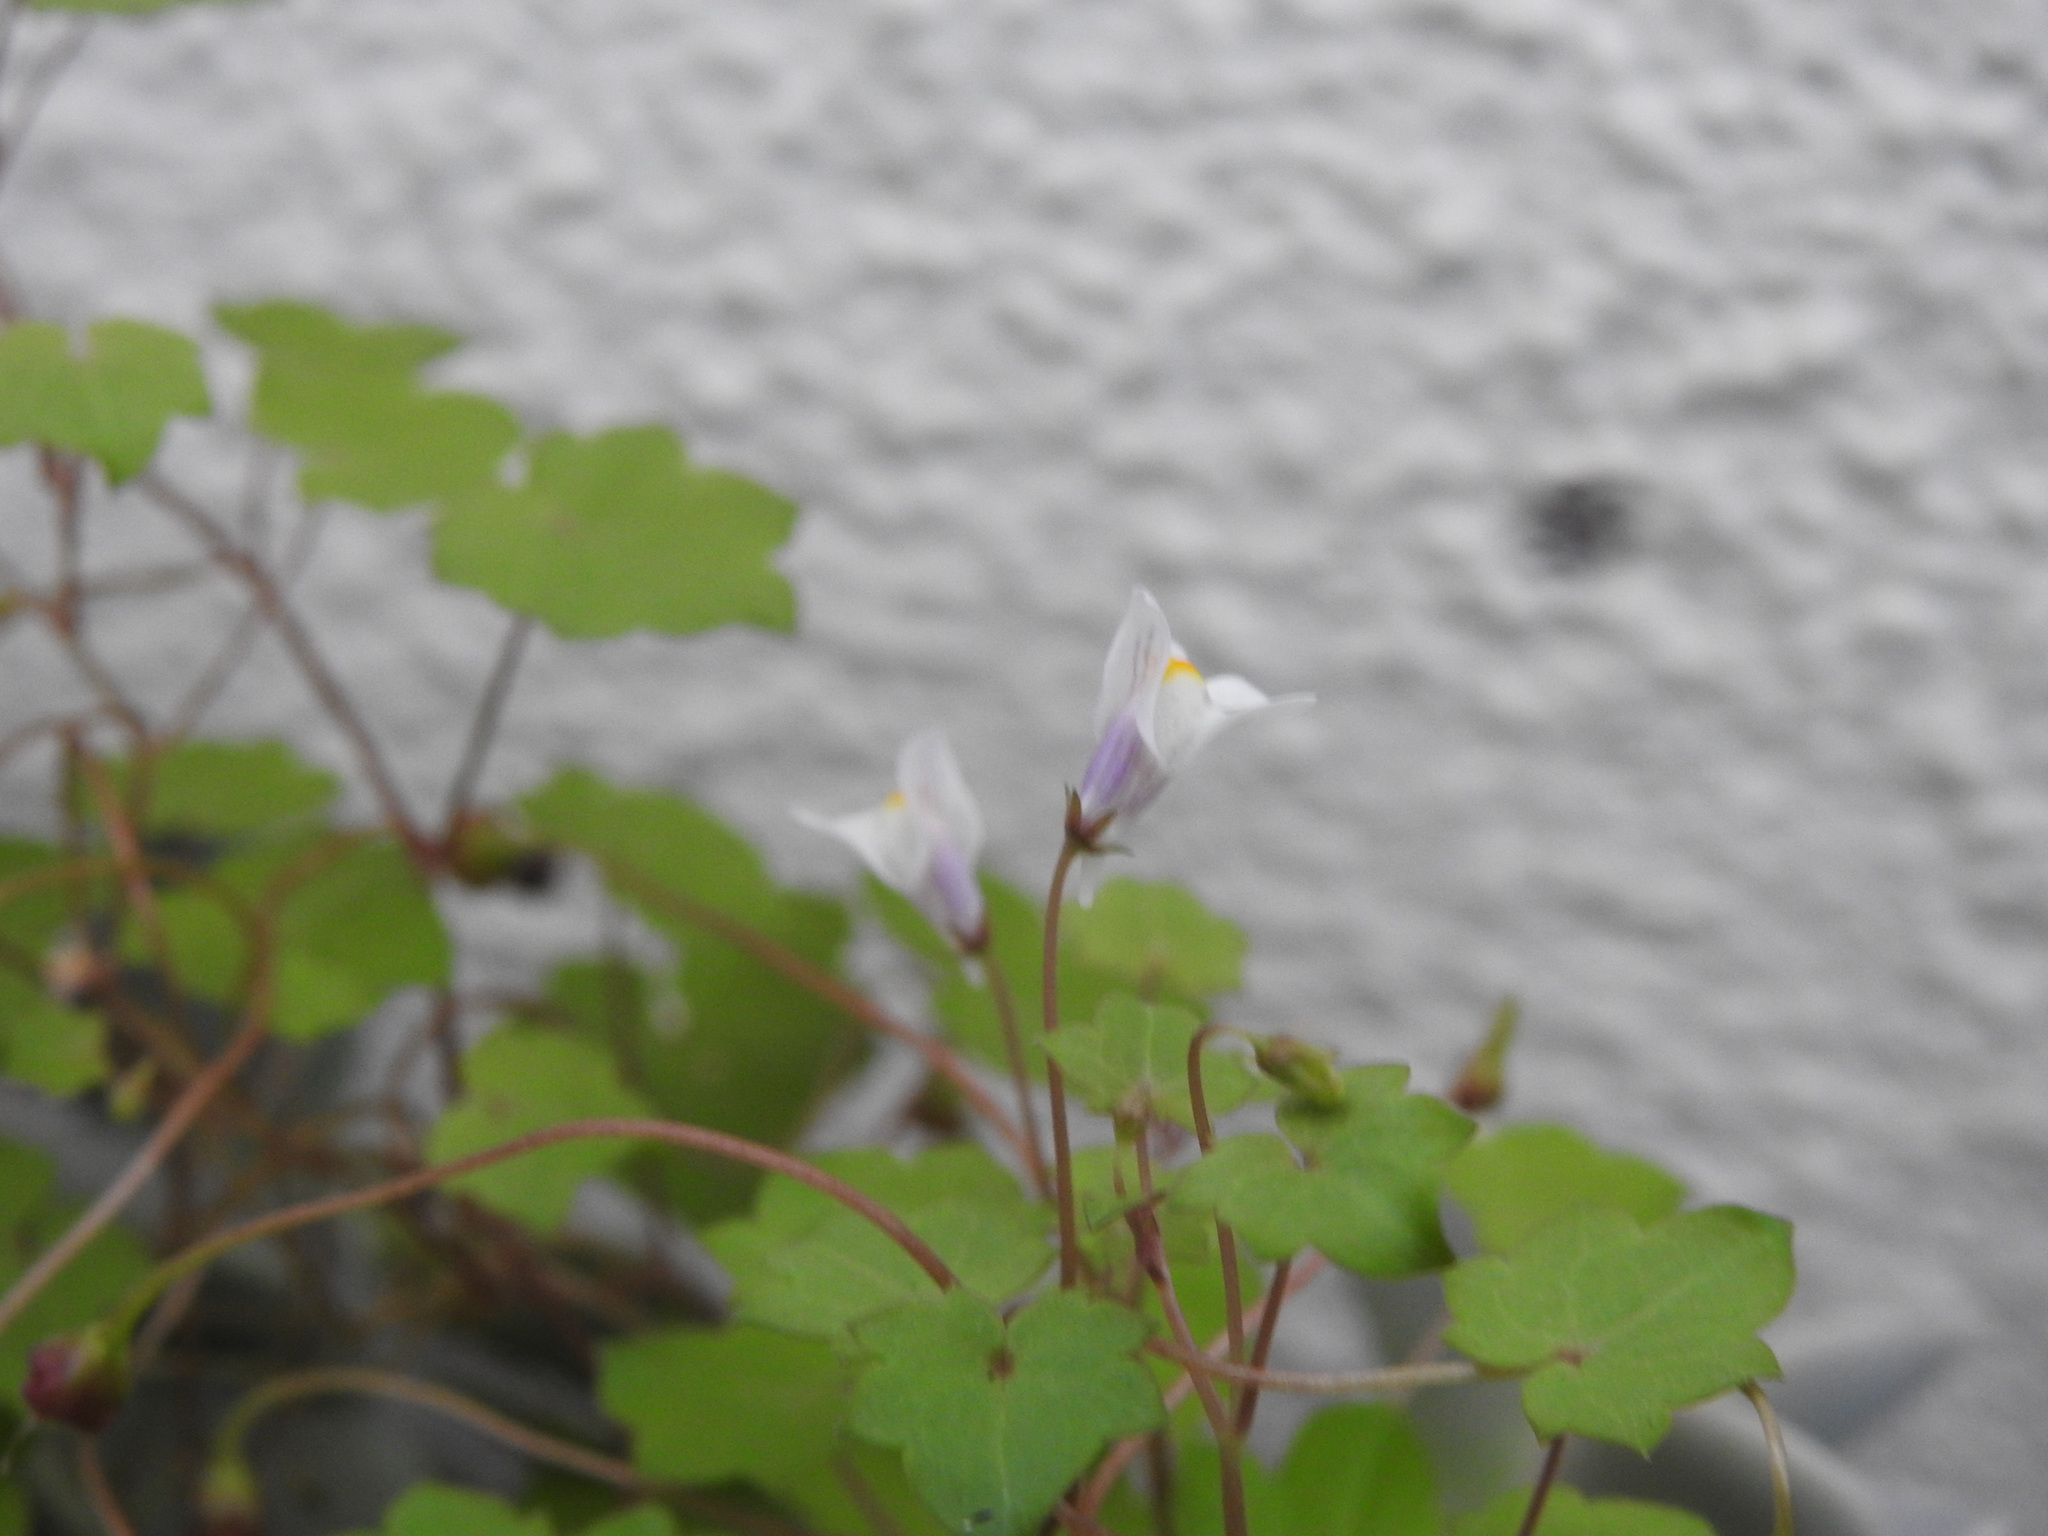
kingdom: Plantae
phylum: Tracheophyta
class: Magnoliopsida
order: Lamiales
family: Plantaginaceae
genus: Cymbalaria
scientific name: Cymbalaria muralis
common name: Ivy-leaved toadflax
